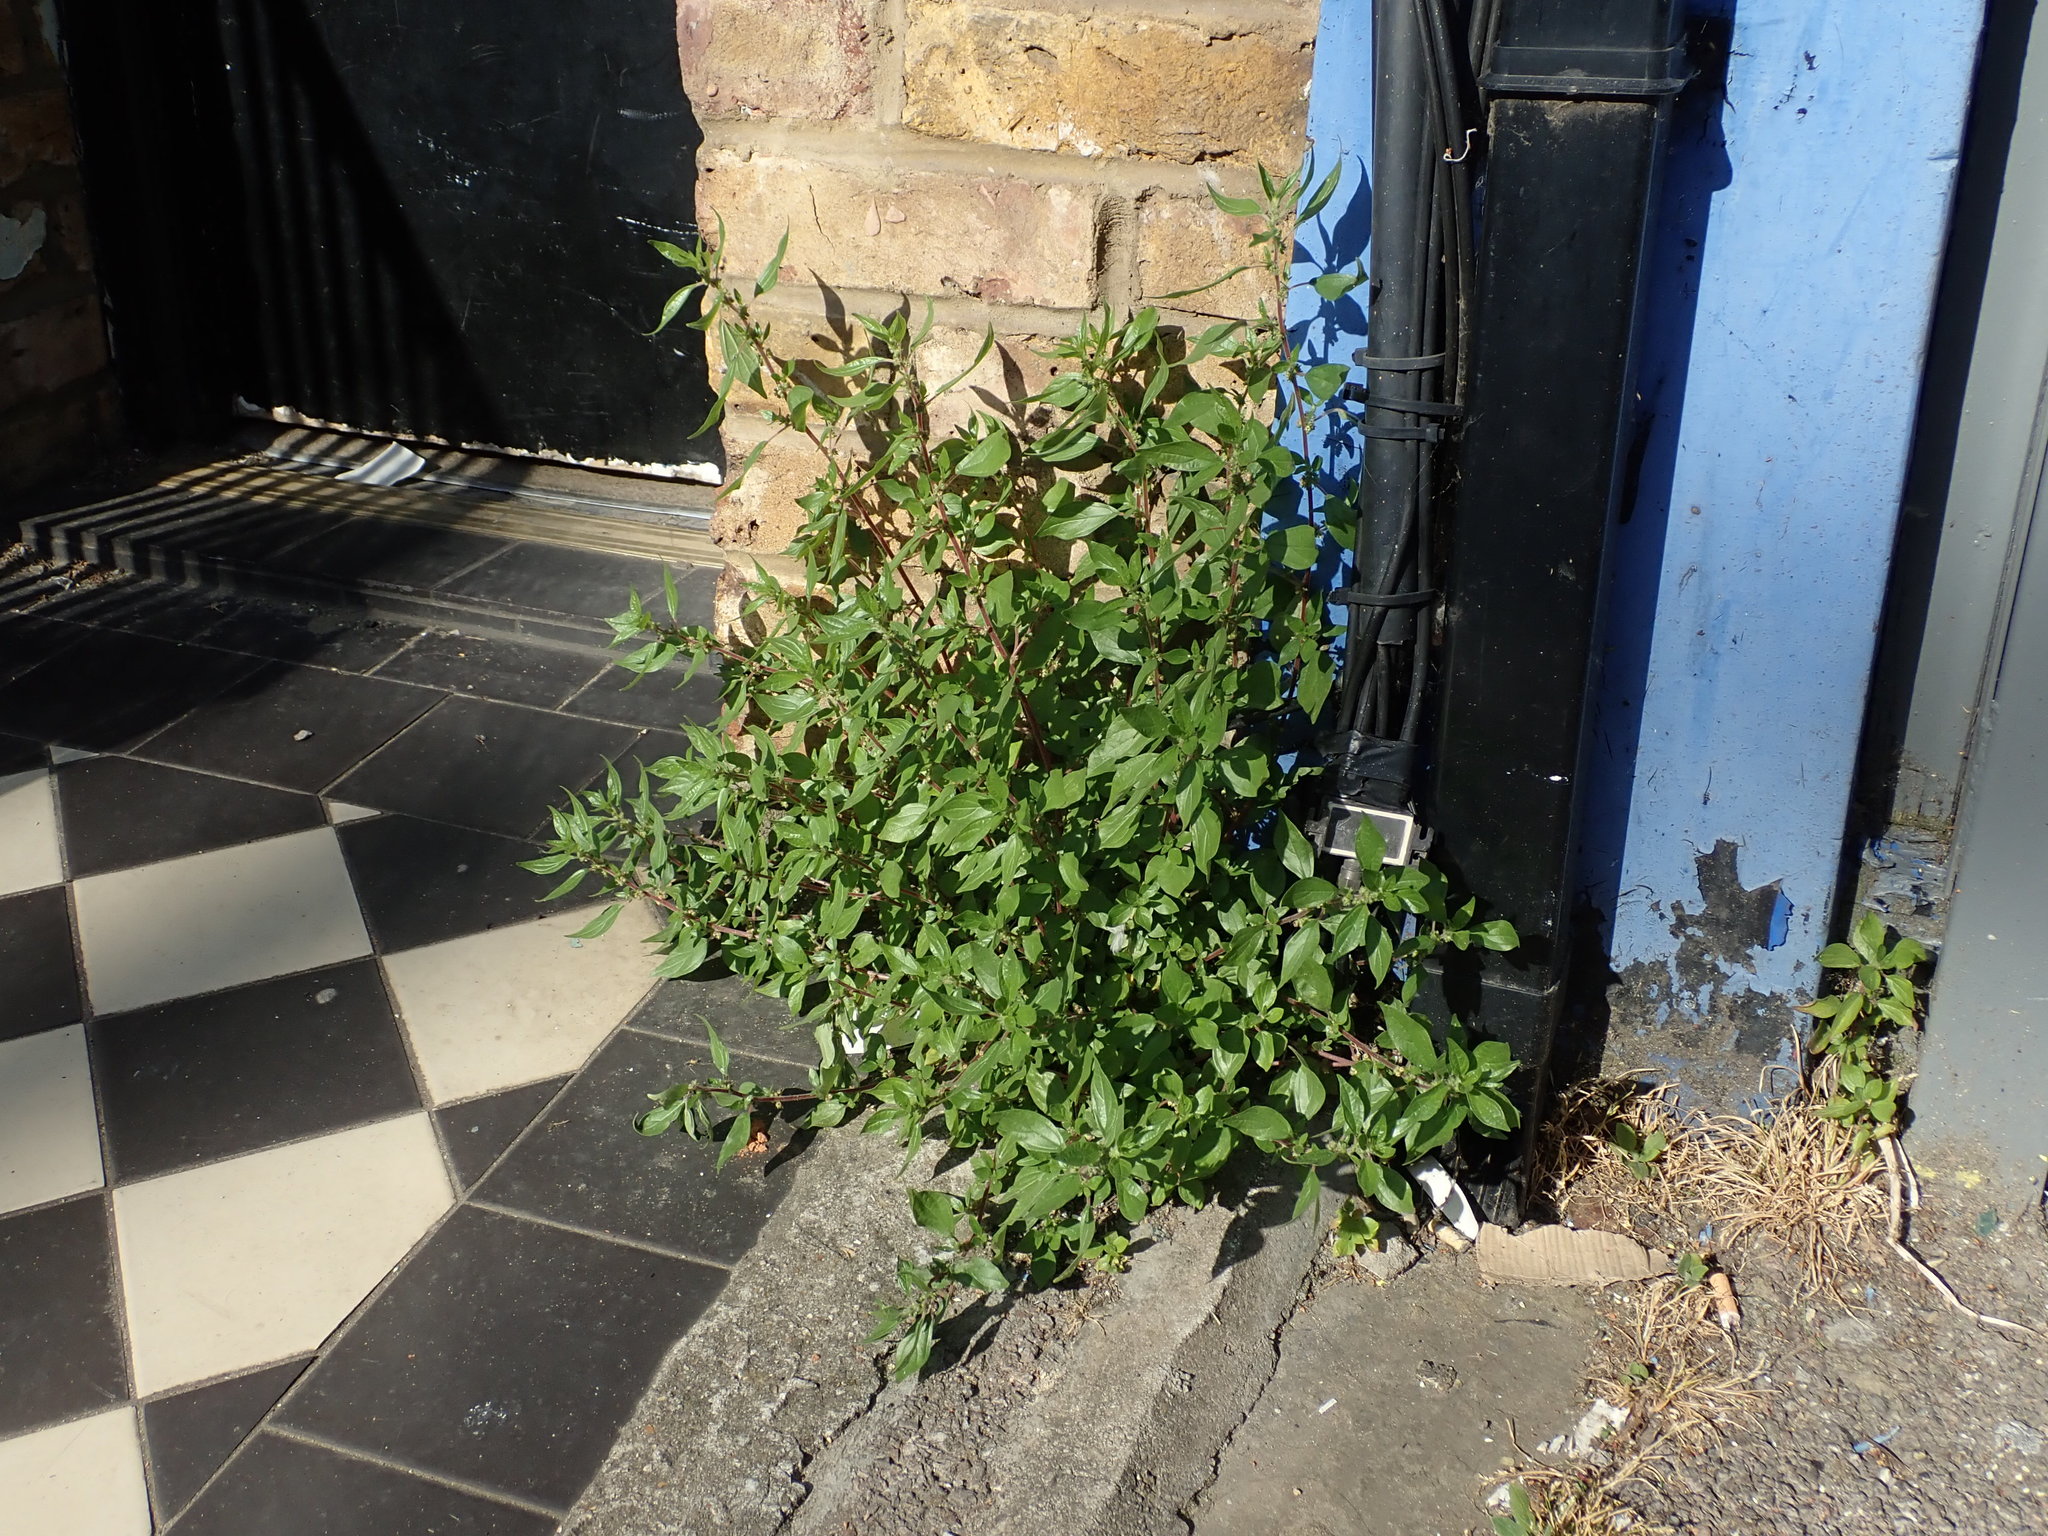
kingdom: Plantae
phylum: Tracheophyta
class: Magnoliopsida
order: Rosales
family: Urticaceae
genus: Parietaria
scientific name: Parietaria judaica
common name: Pellitory-of-the-wall
